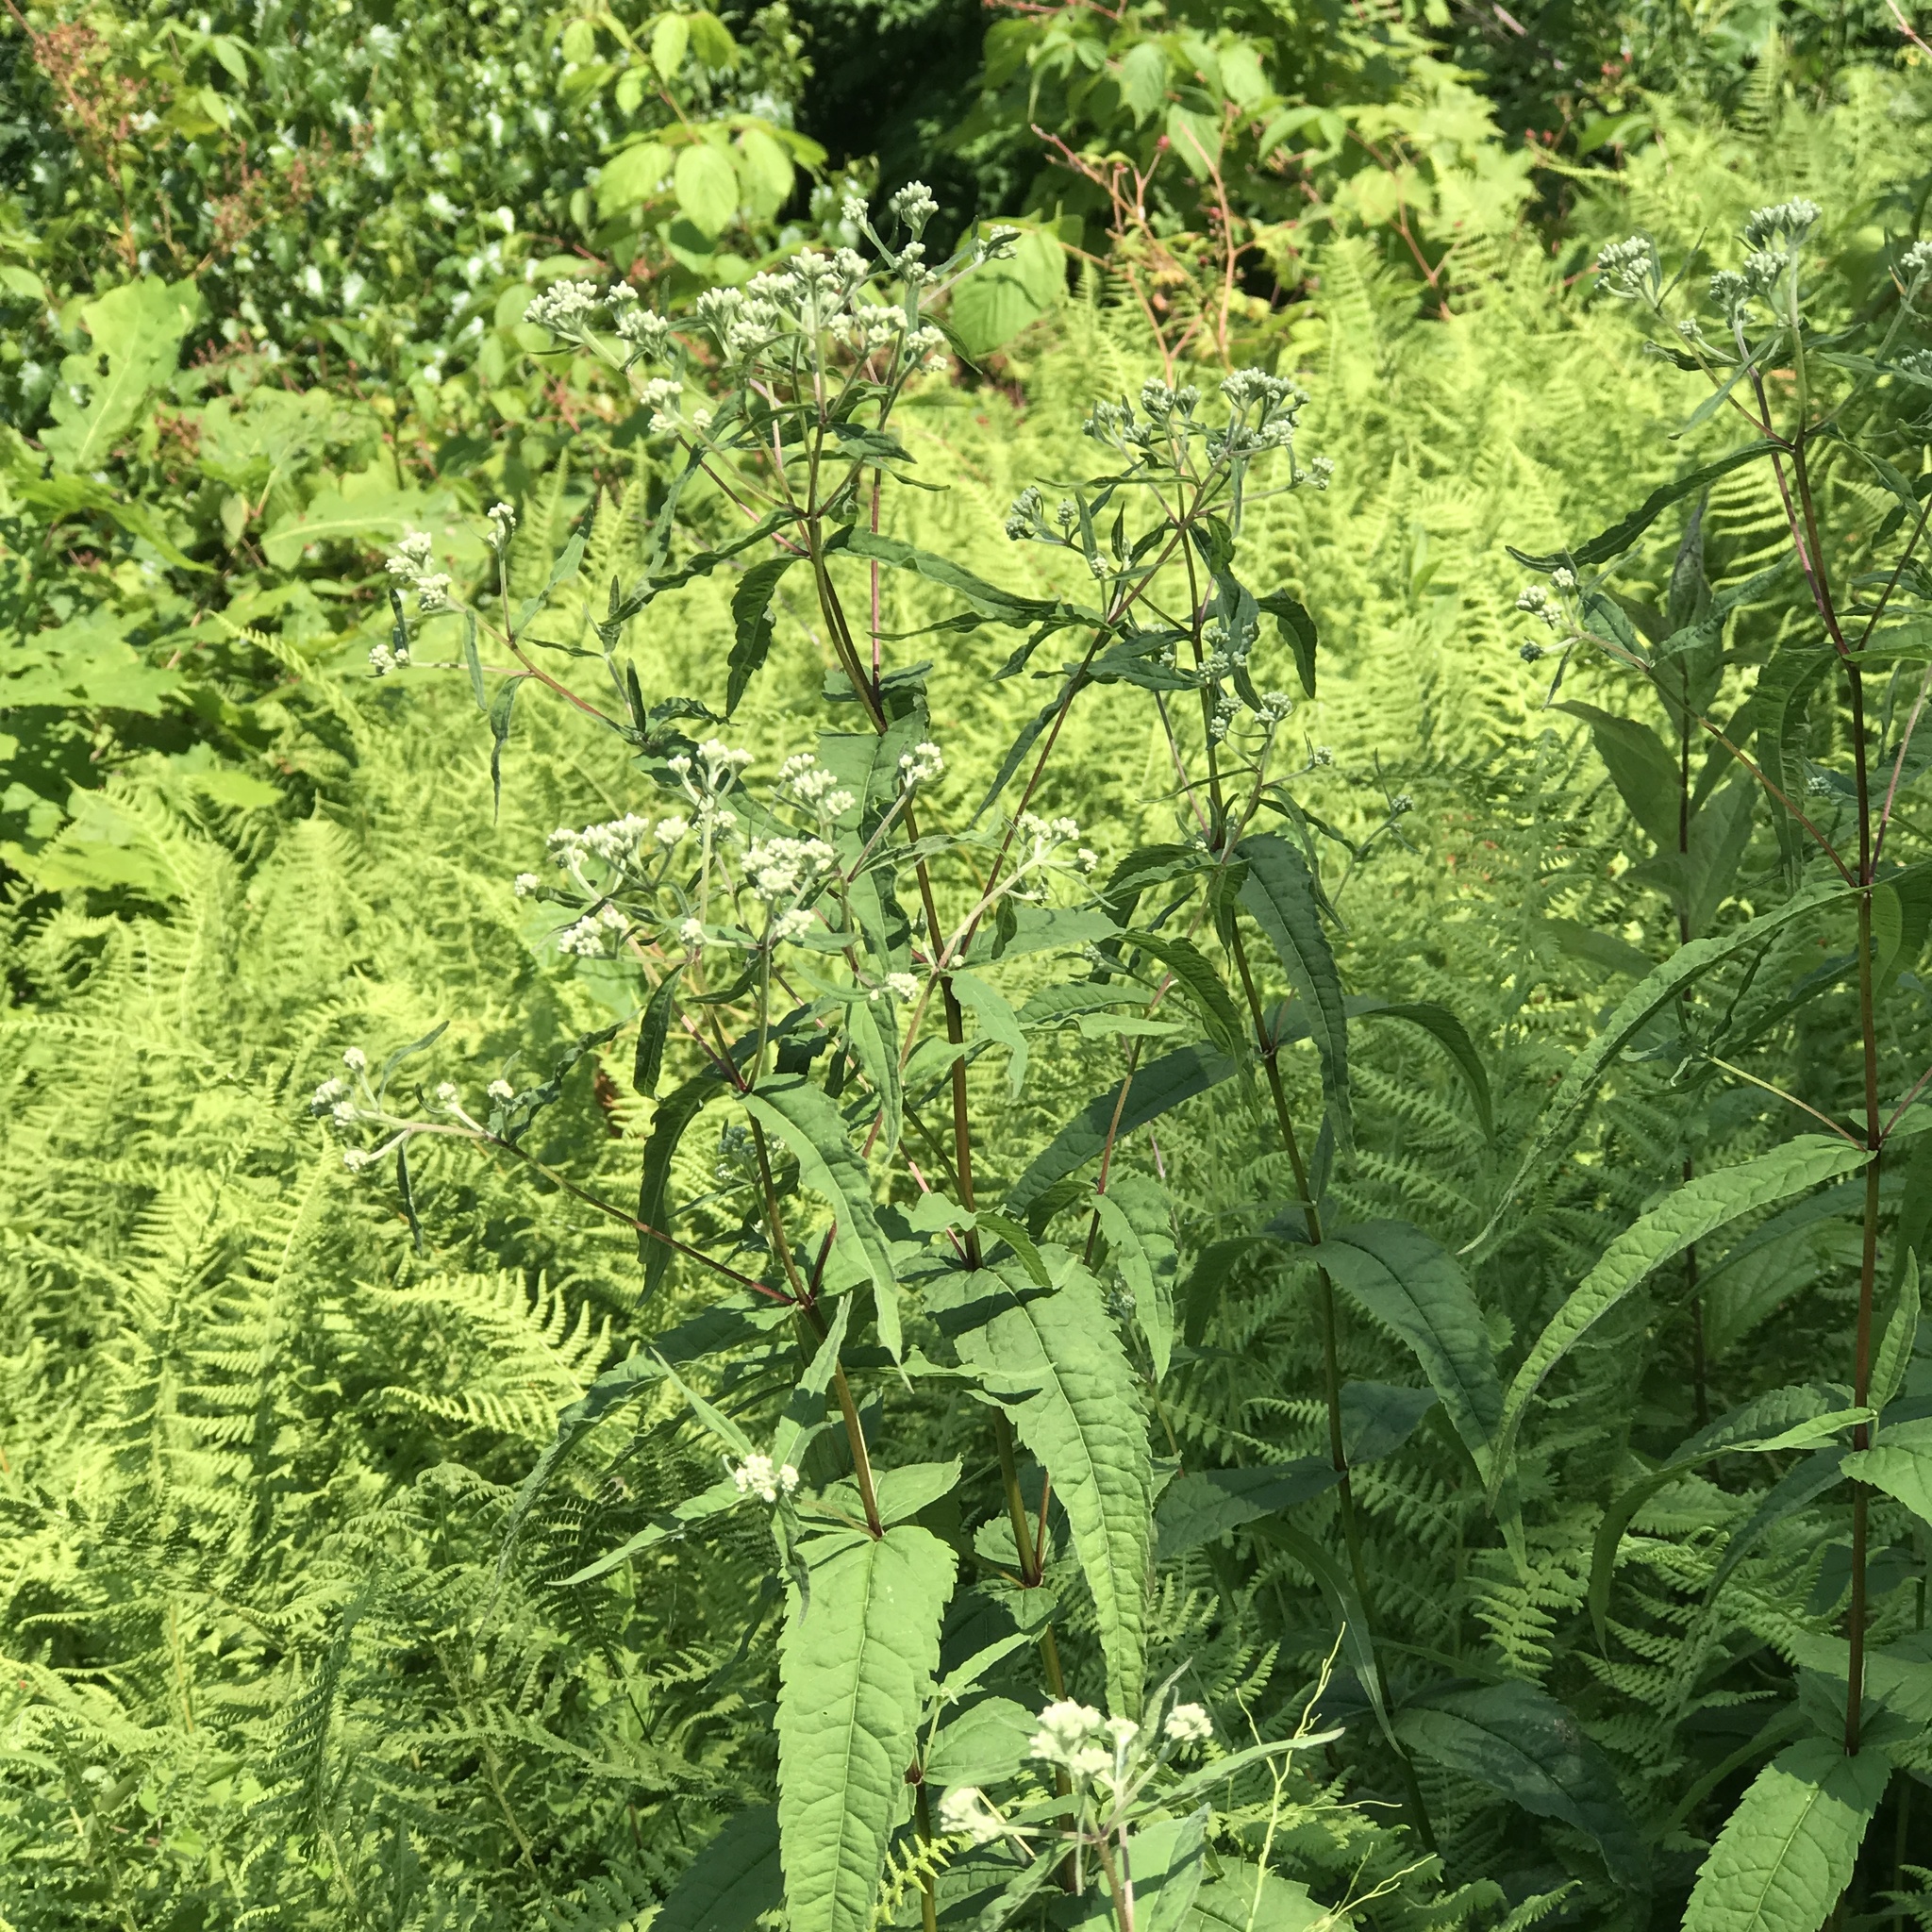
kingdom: Plantae
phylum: Tracheophyta
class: Magnoliopsida
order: Asterales
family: Asteraceae
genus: Eupatorium
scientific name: Eupatorium sessilifolium
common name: Upland boneset
